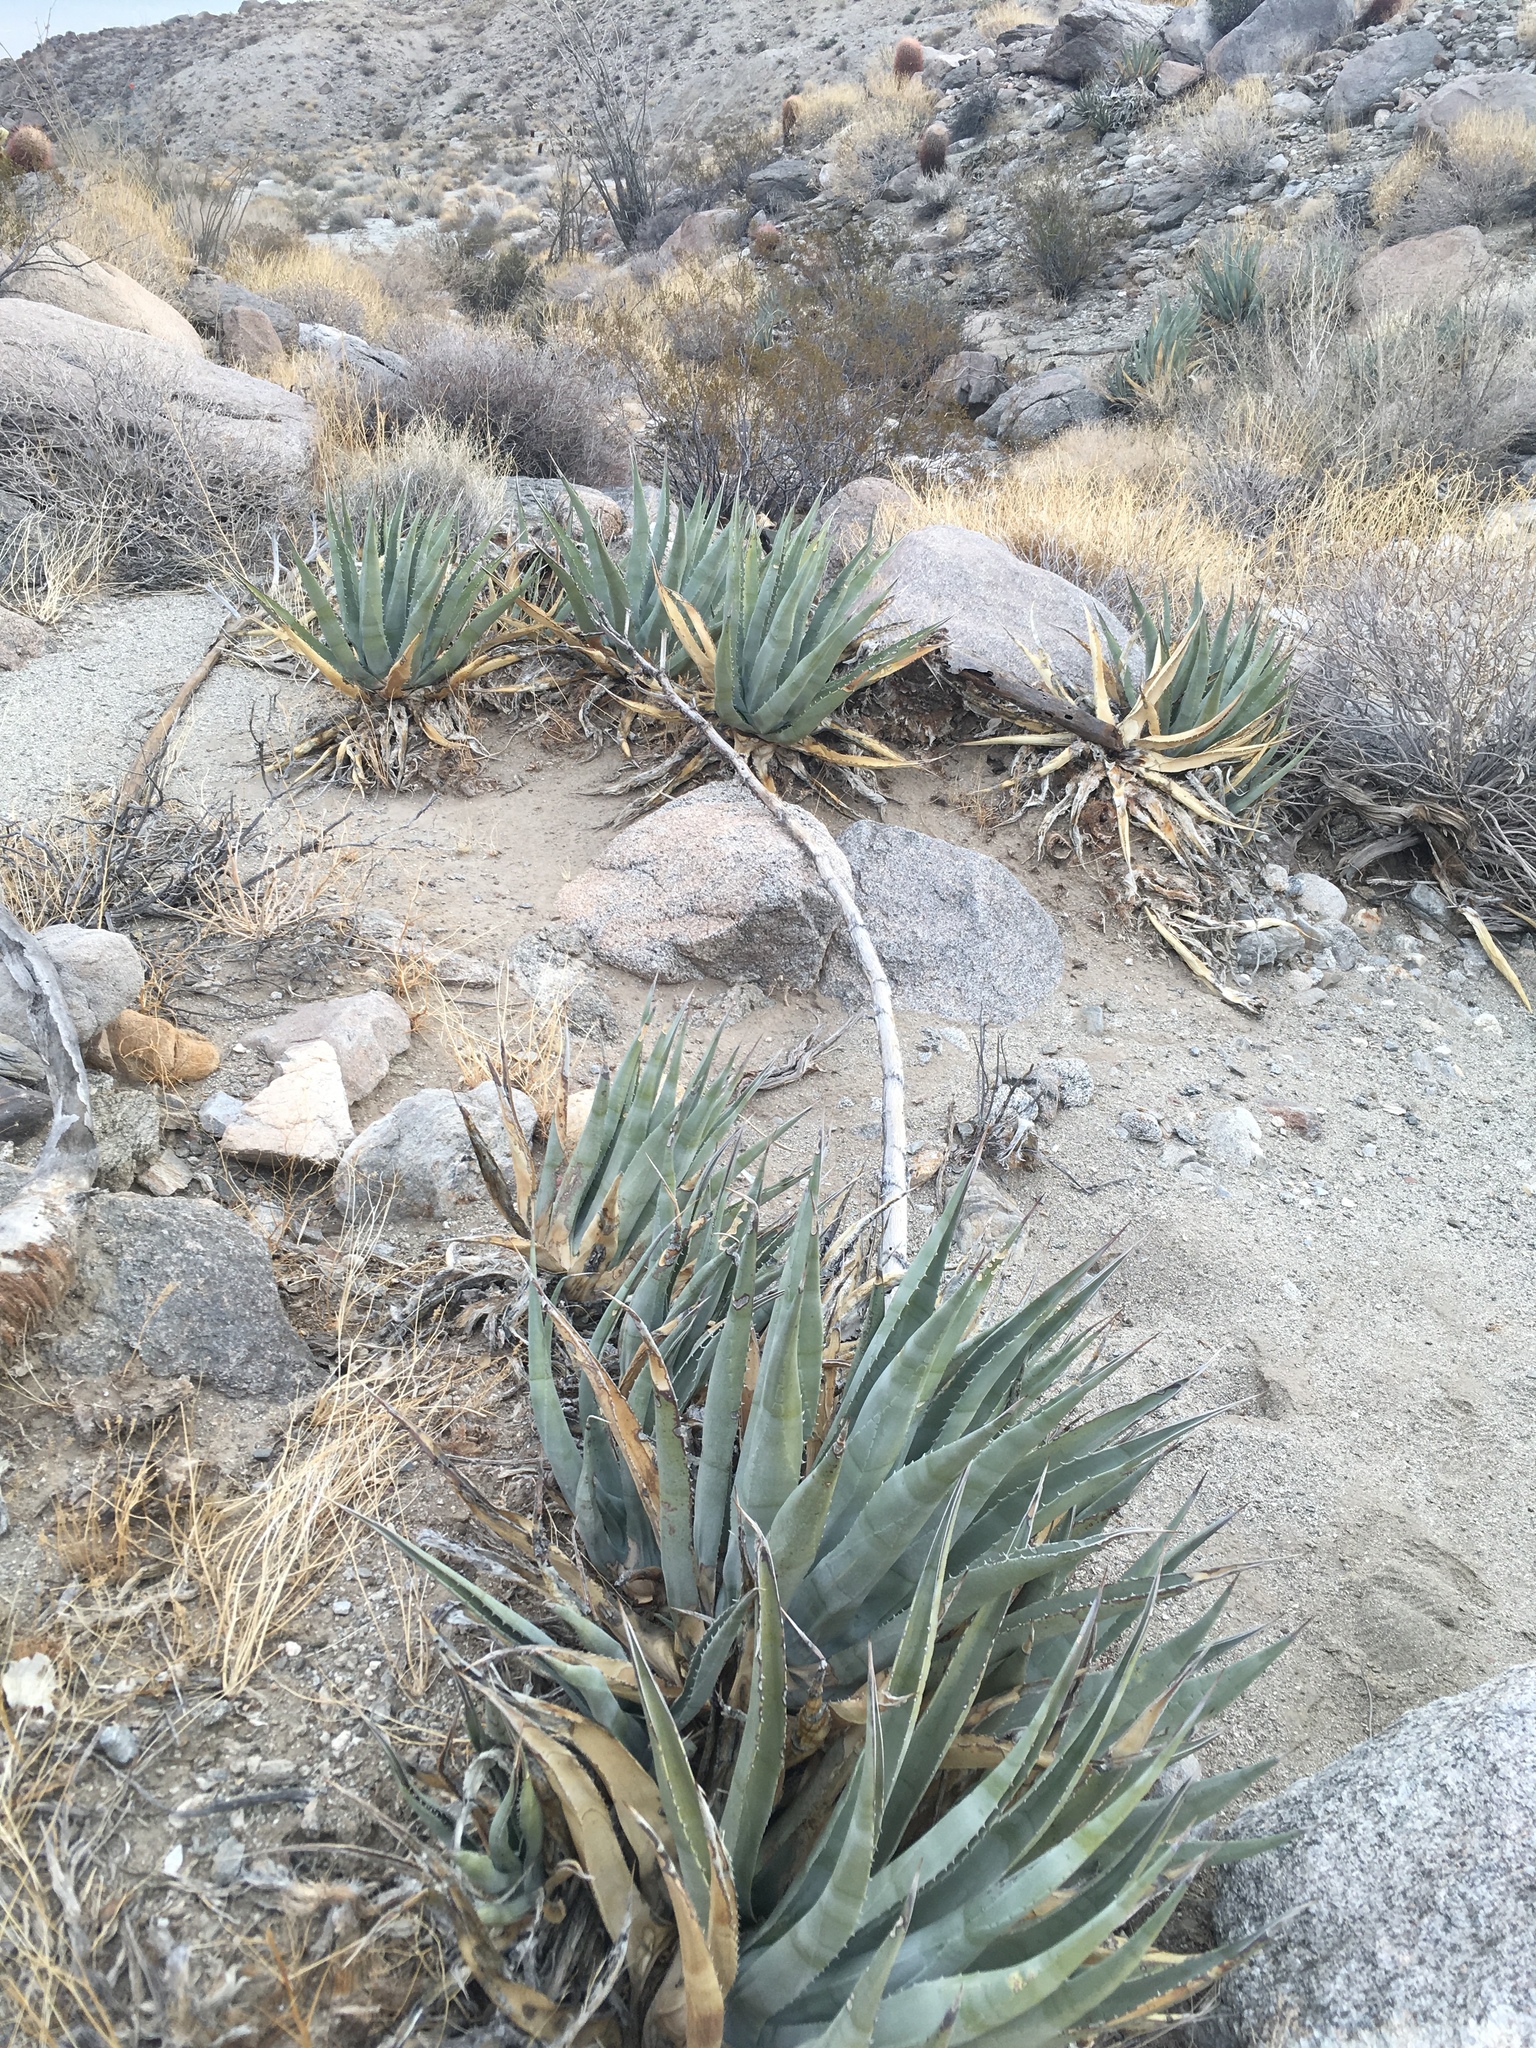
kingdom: Plantae
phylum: Tracheophyta
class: Liliopsida
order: Asparagales
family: Asparagaceae
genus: Agave
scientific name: Agave deserti
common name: Desert agave
